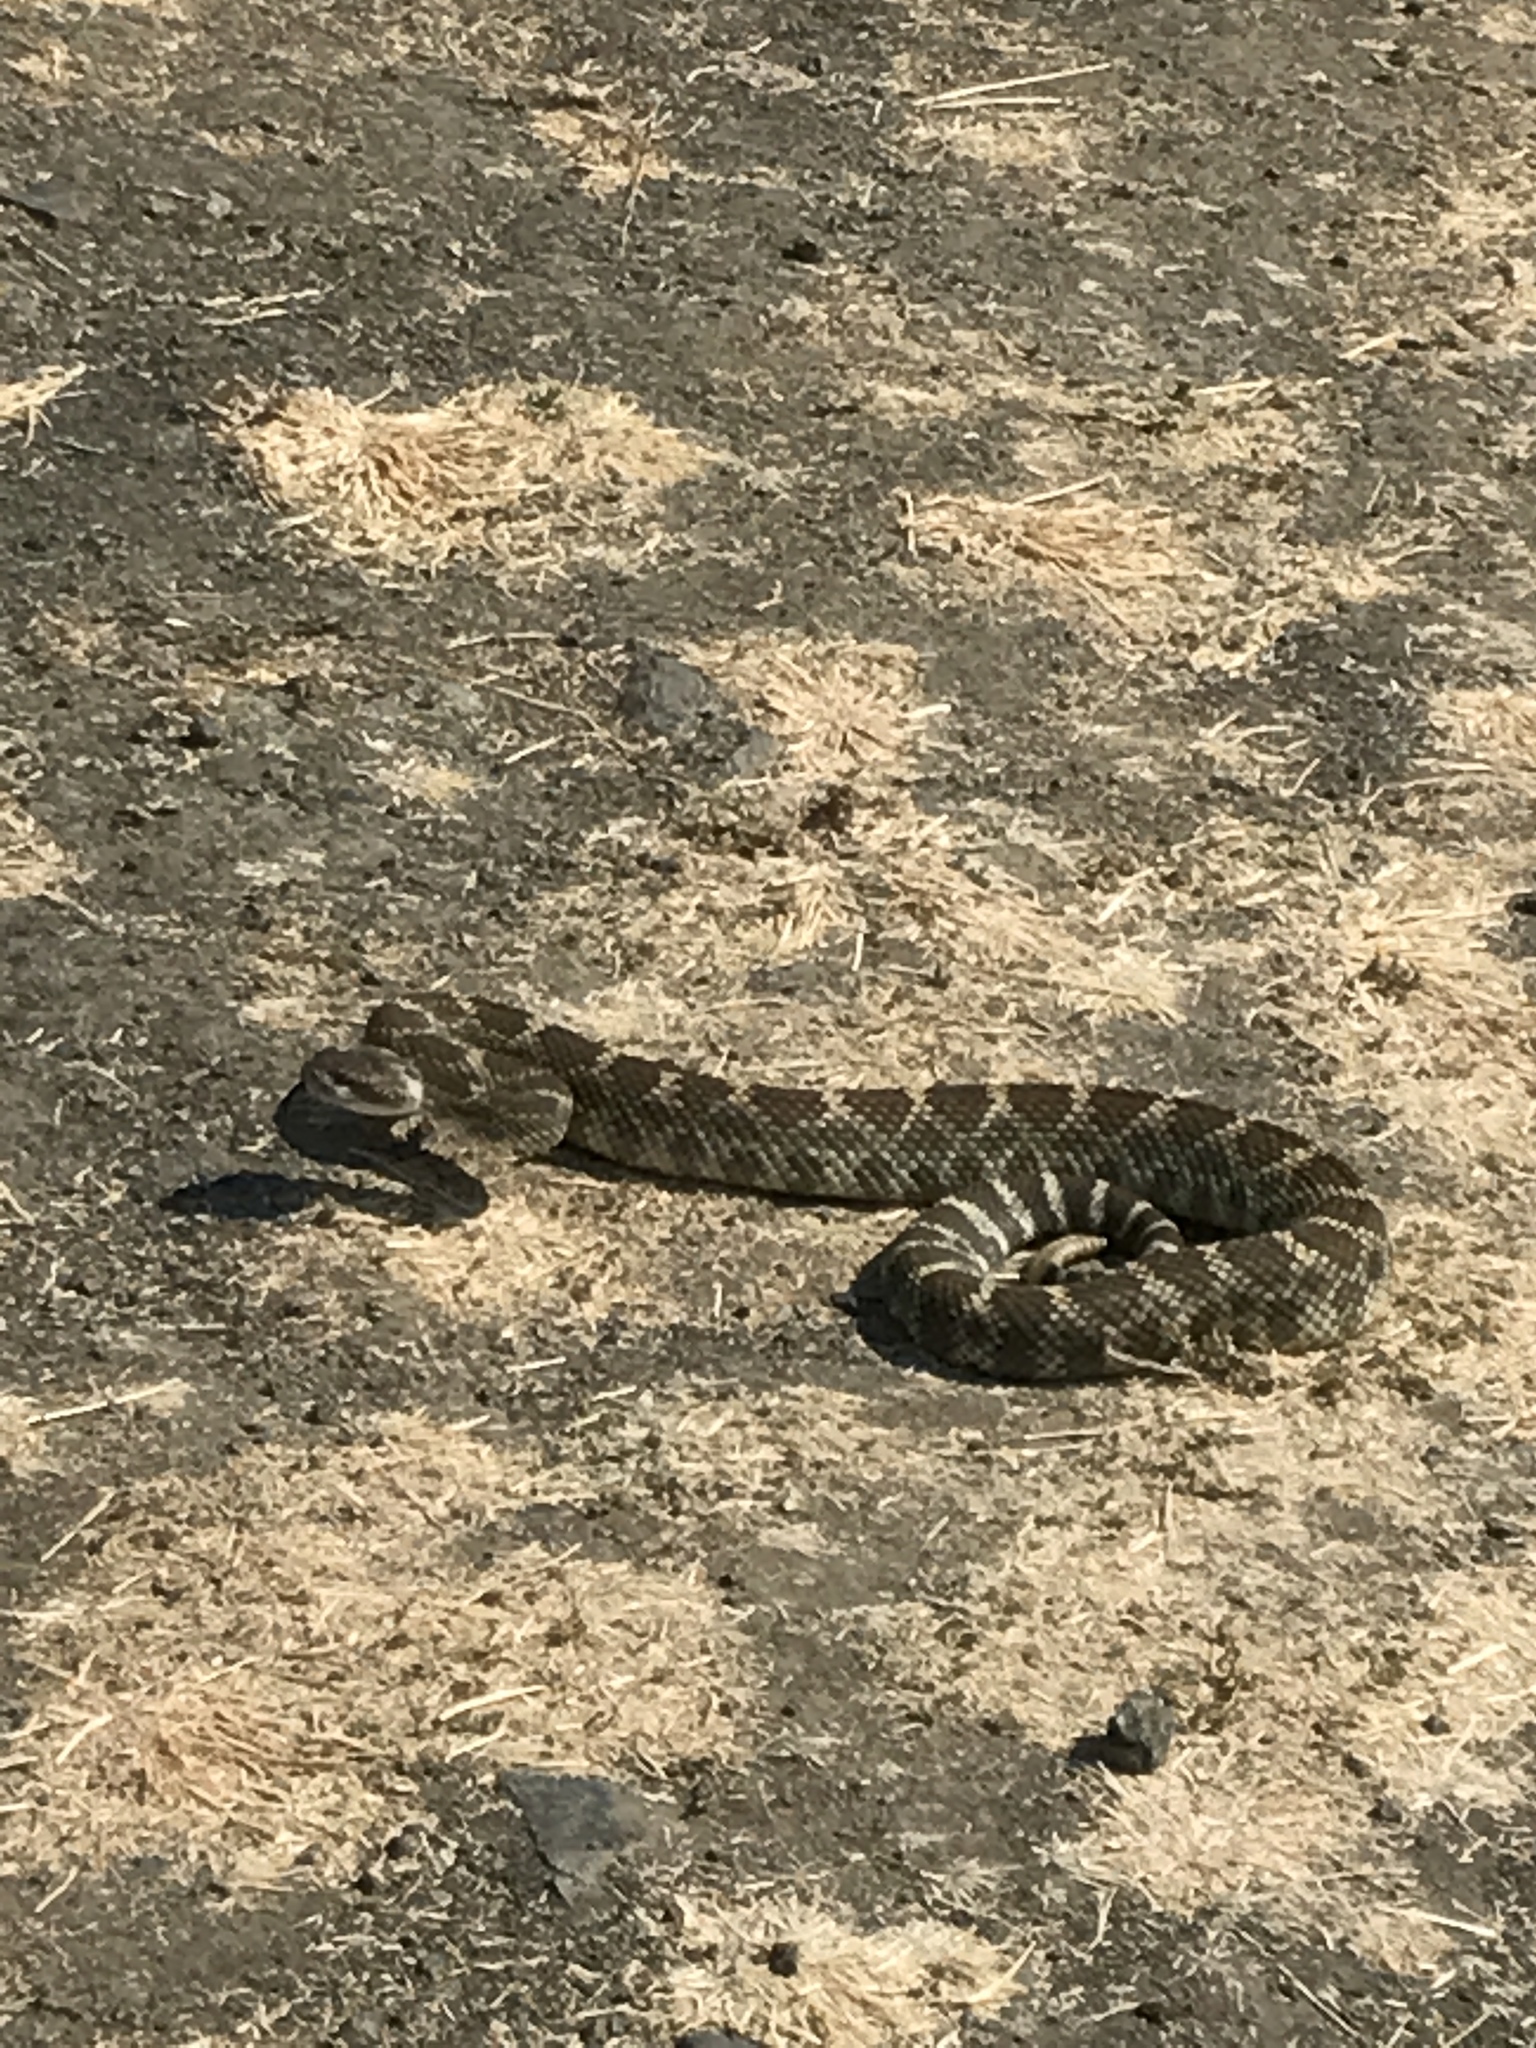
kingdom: Animalia
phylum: Chordata
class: Squamata
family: Viperidae
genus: Crotalus
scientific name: Crotalus oreganus
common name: Abyssus
